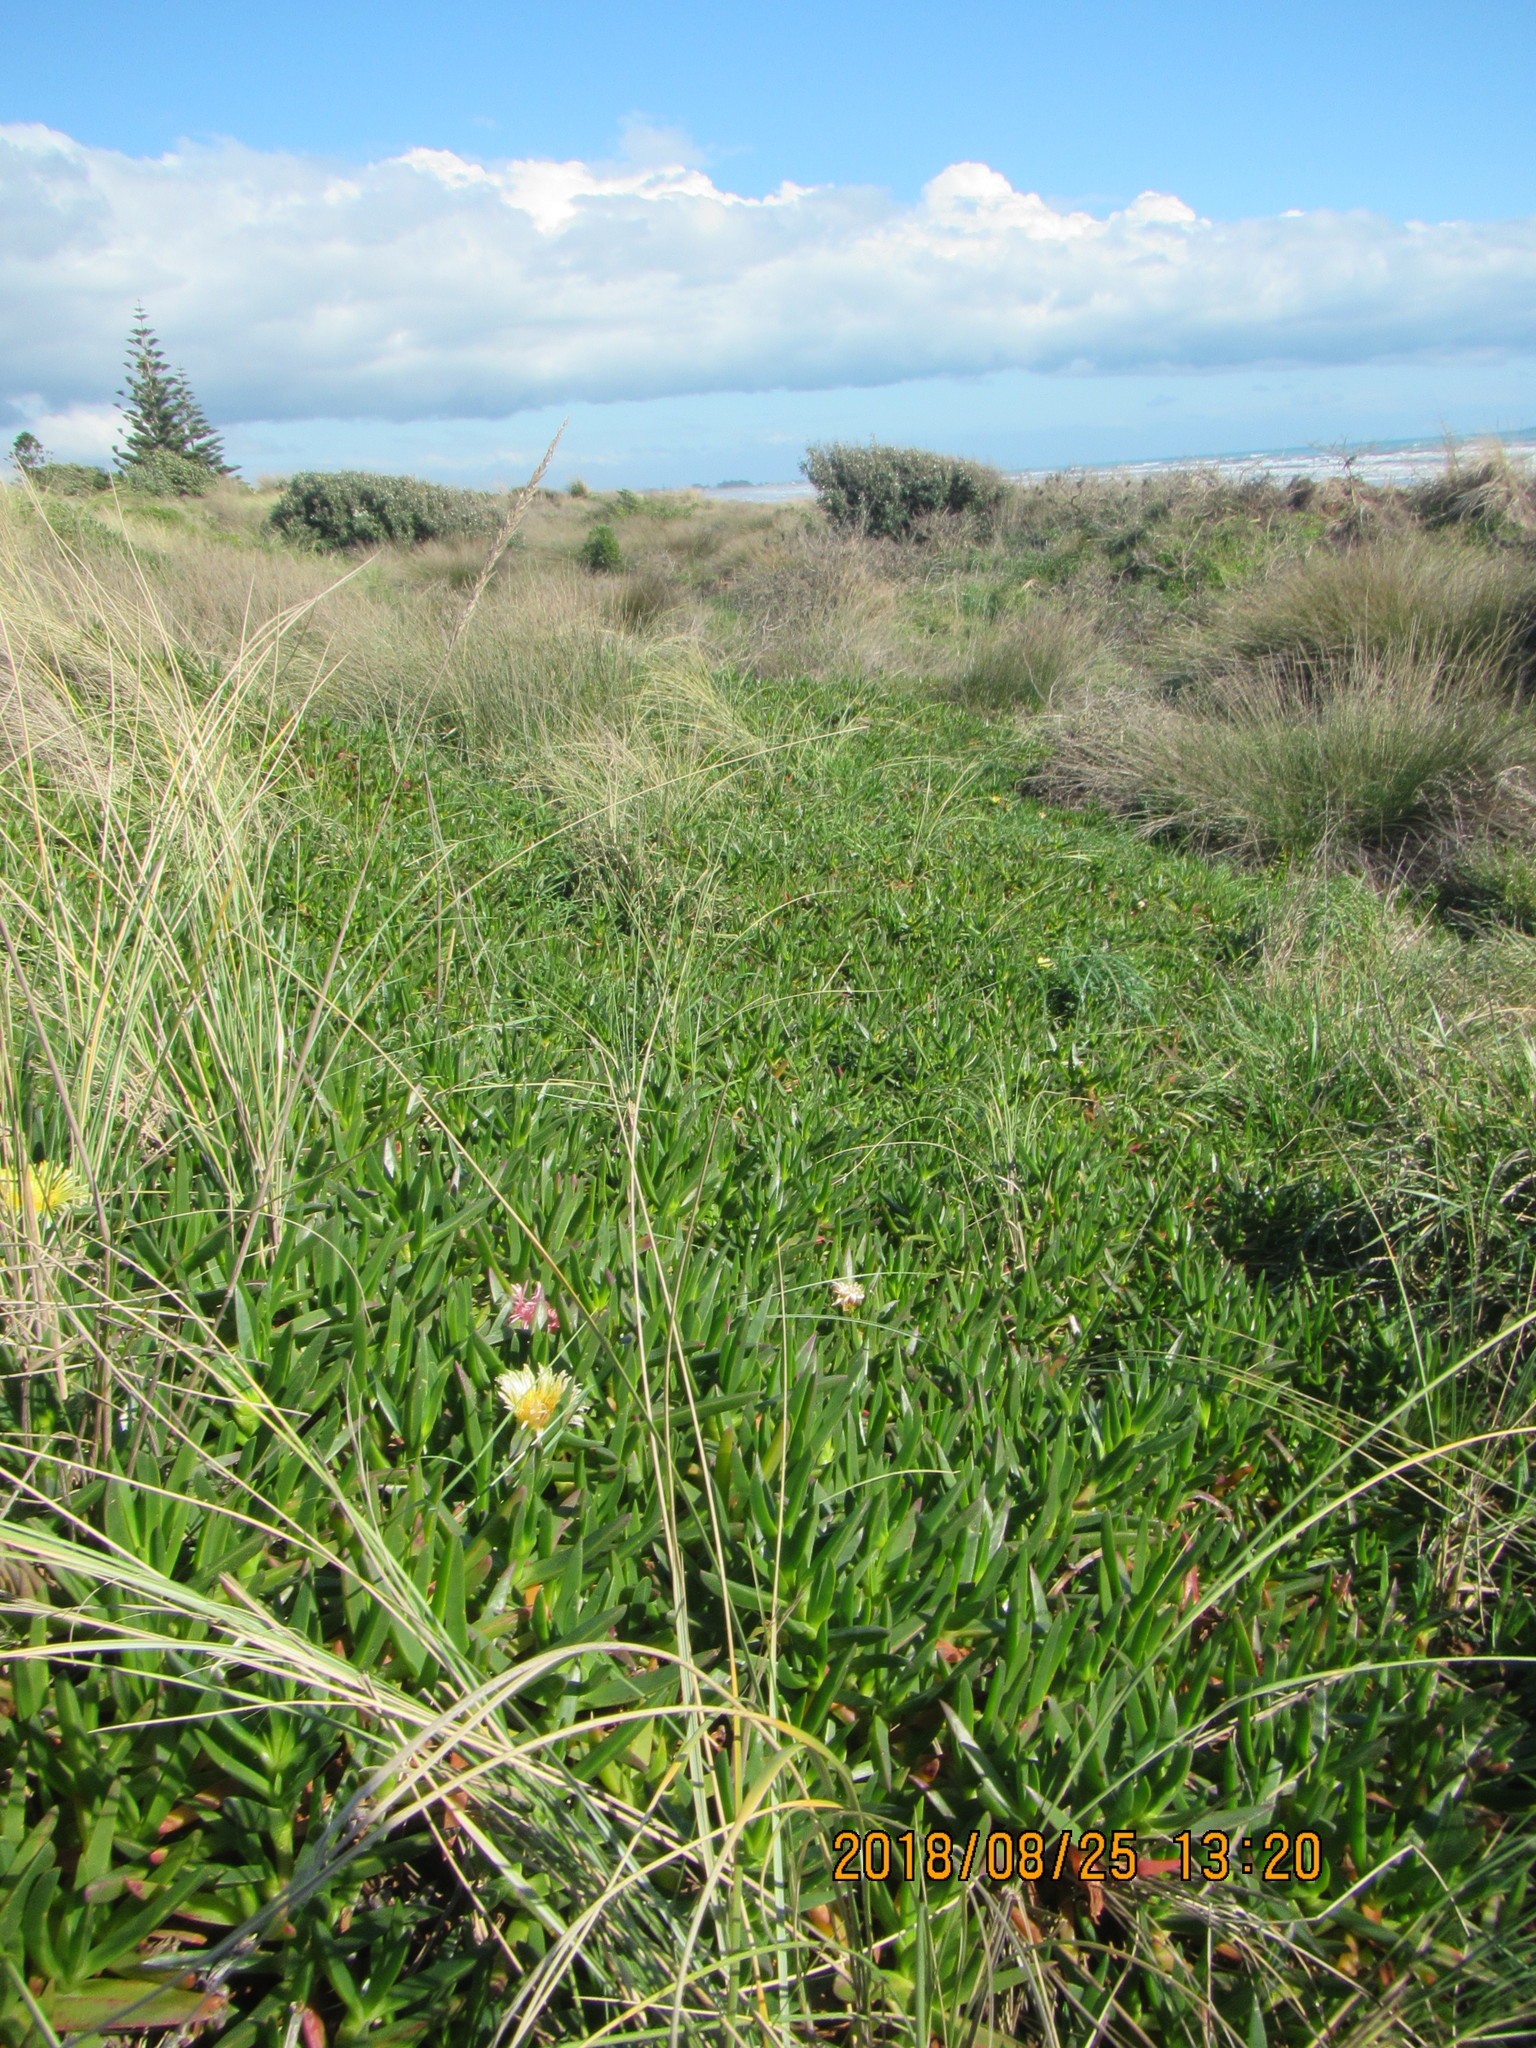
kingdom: Plantae
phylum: Tracheophyta
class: Magnoliopsida
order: Caryophyllales
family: Aizoaceae
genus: Carpobrotus
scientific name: Carpobrotus edulis
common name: Hottentot-fig
